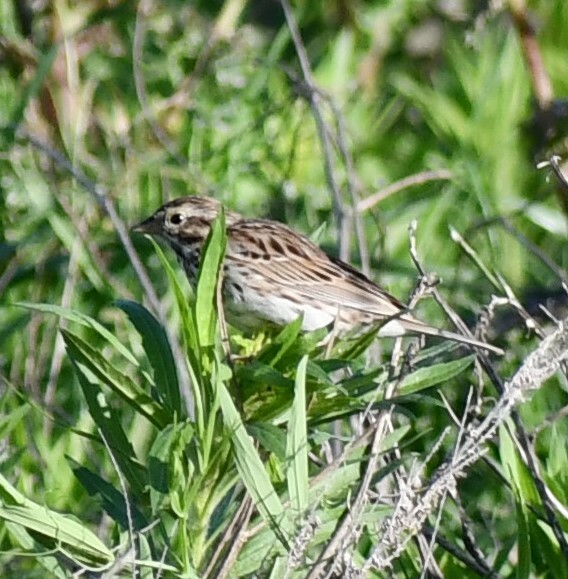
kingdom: Animalia
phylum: Chordata
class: Aves
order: Passeriformes
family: Passerellidae
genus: Passerculus
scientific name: Passerculus sandwichensis
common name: Savannah sparrow
